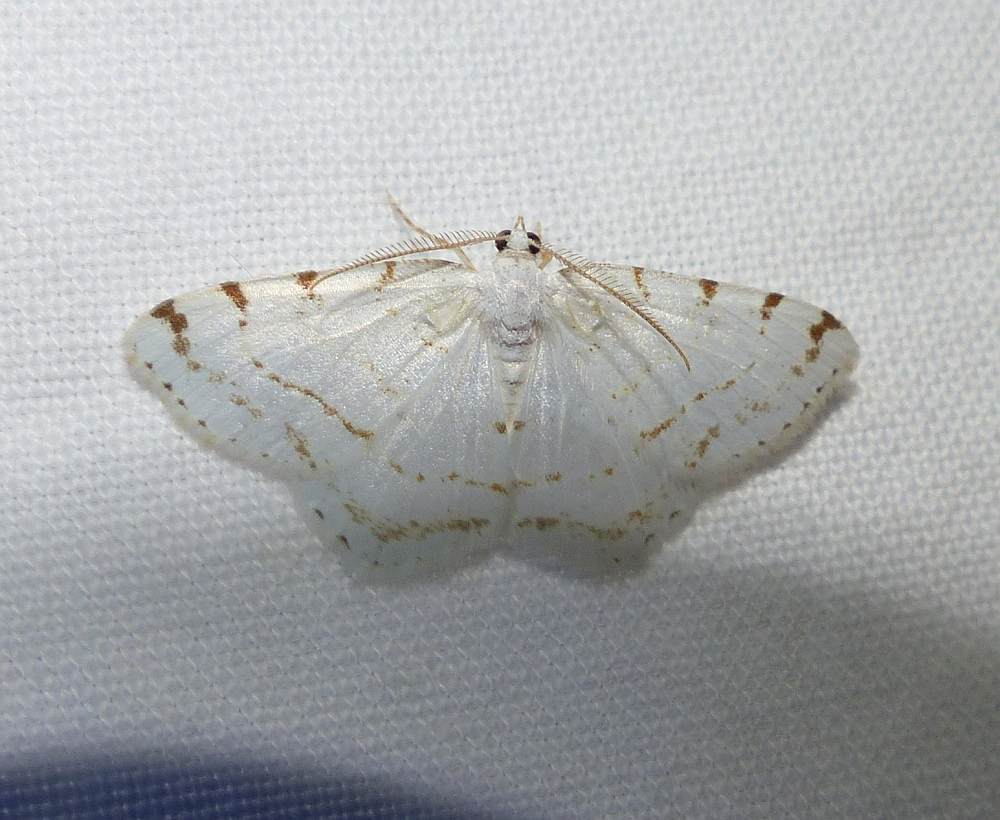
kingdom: Animalia
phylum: Arthropoda
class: Insecta
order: Lepidoptera
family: Geometridae
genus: Macaria
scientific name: Macaria pustularia
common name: Lesser maple spanworm moth
